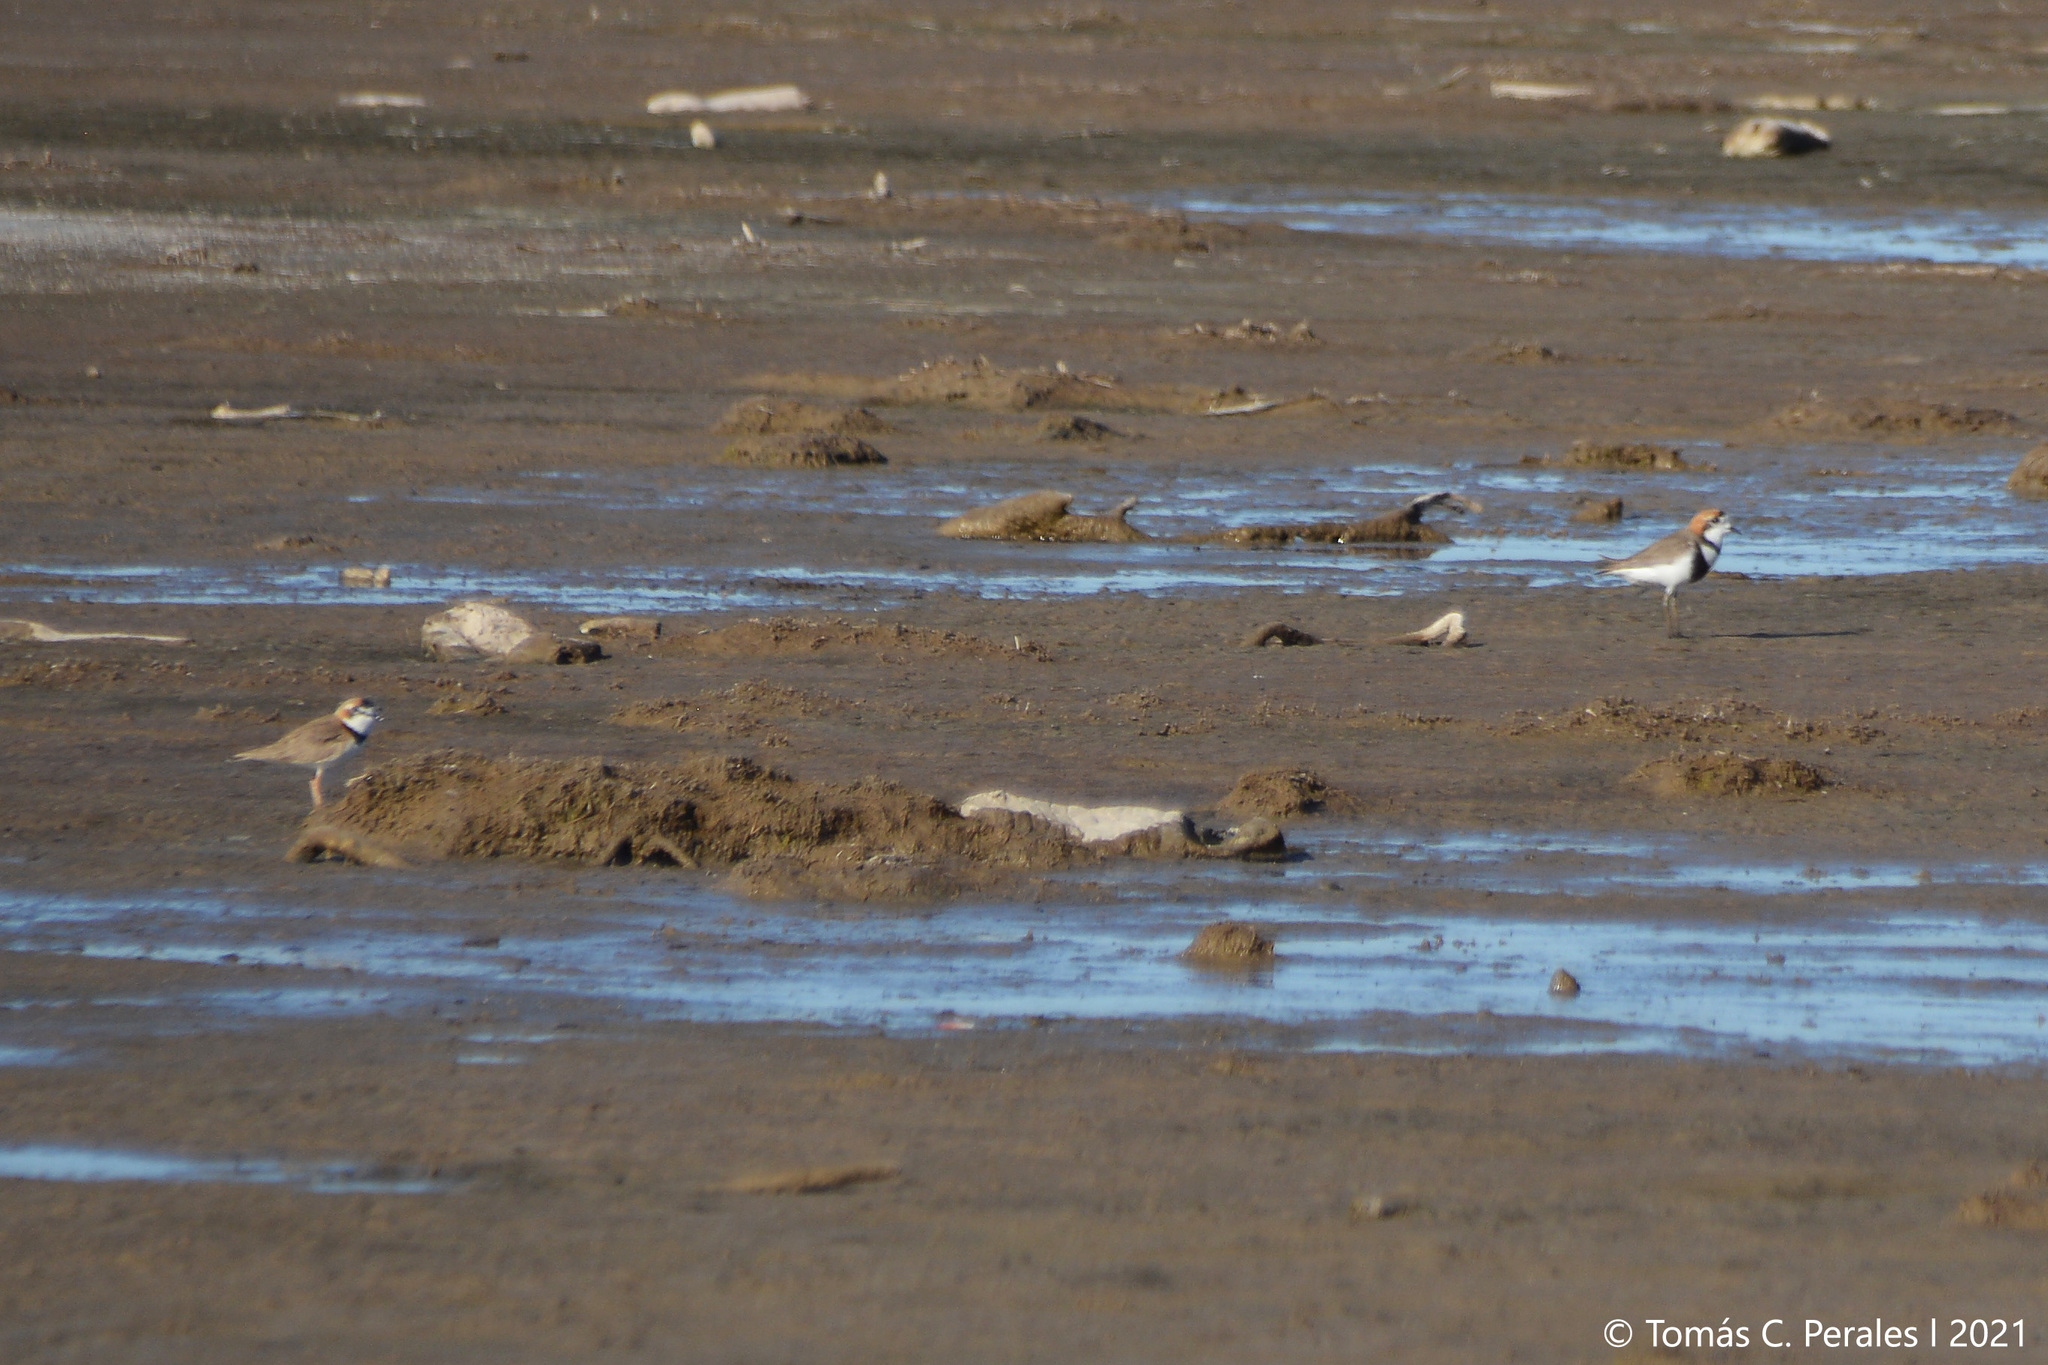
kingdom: Animalia
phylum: Chordata
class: Aves
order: Charadriiformes
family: Charadriidae
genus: Anarhynchus
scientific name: Anarhynchus
